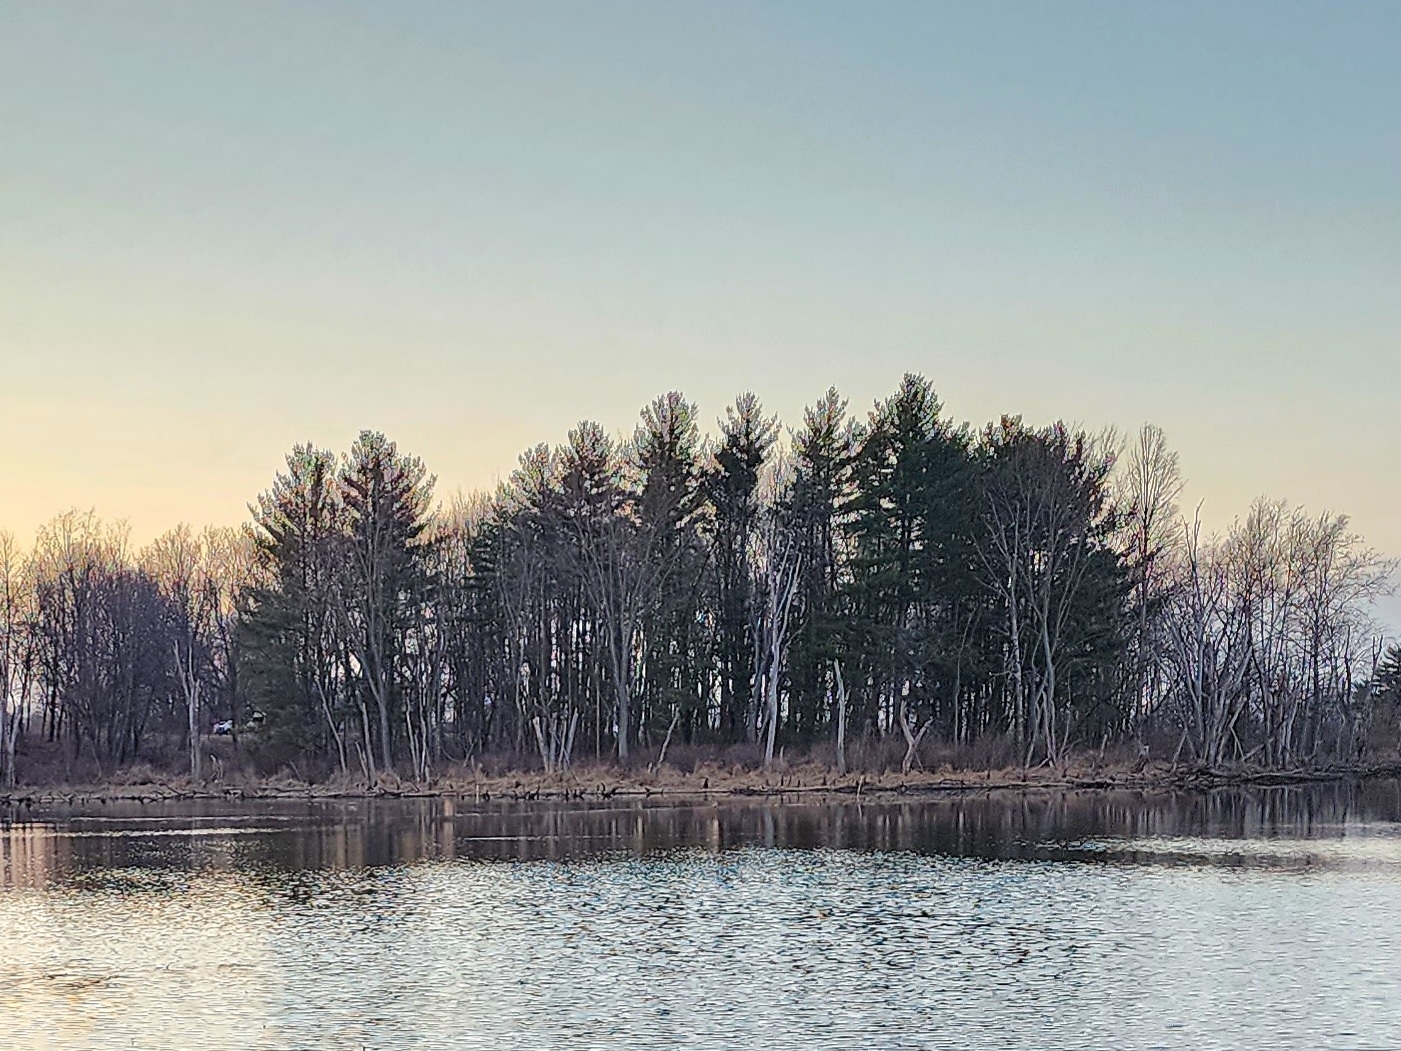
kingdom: Plantae
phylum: Tracheophyta
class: Pinopsida
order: Pinales
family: Pinaceae
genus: Pinus
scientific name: Pinus strobus
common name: Weymouth pine
